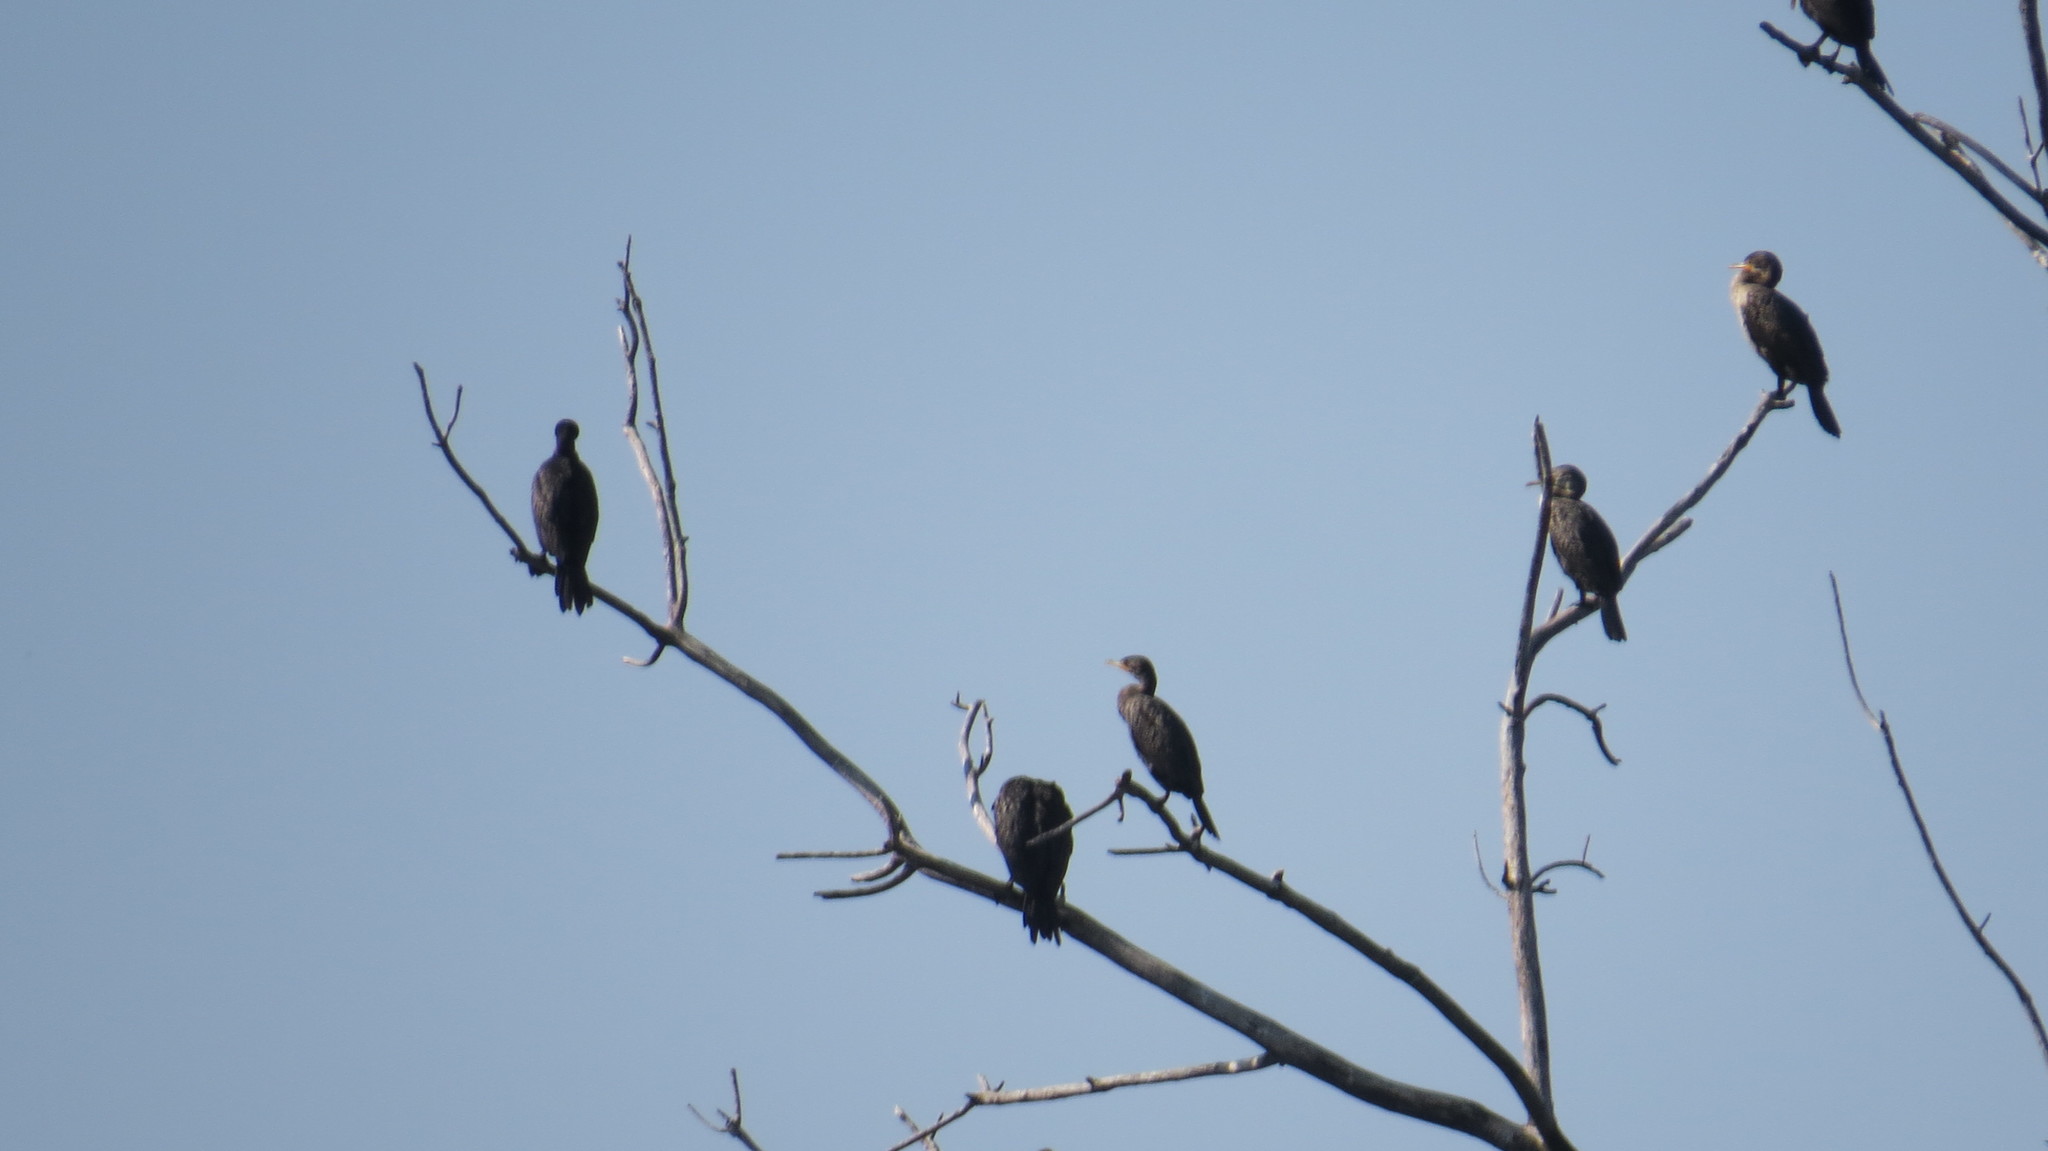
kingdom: Animalia
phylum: Chordata
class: Aves
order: Suliformes
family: Phalacrocoracidae
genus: Phalacrocorax
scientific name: Phalacrocorax auritus
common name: Double-crested cormorant
